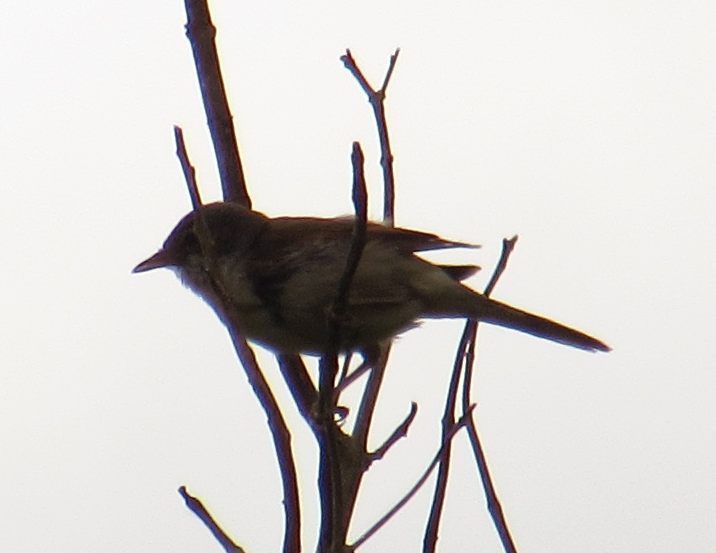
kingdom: Animalia
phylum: Chordata
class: Aves
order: Passeriformes
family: Sylviidae
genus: Sylvia
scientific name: Sylvia communis
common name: Common whitethroat
